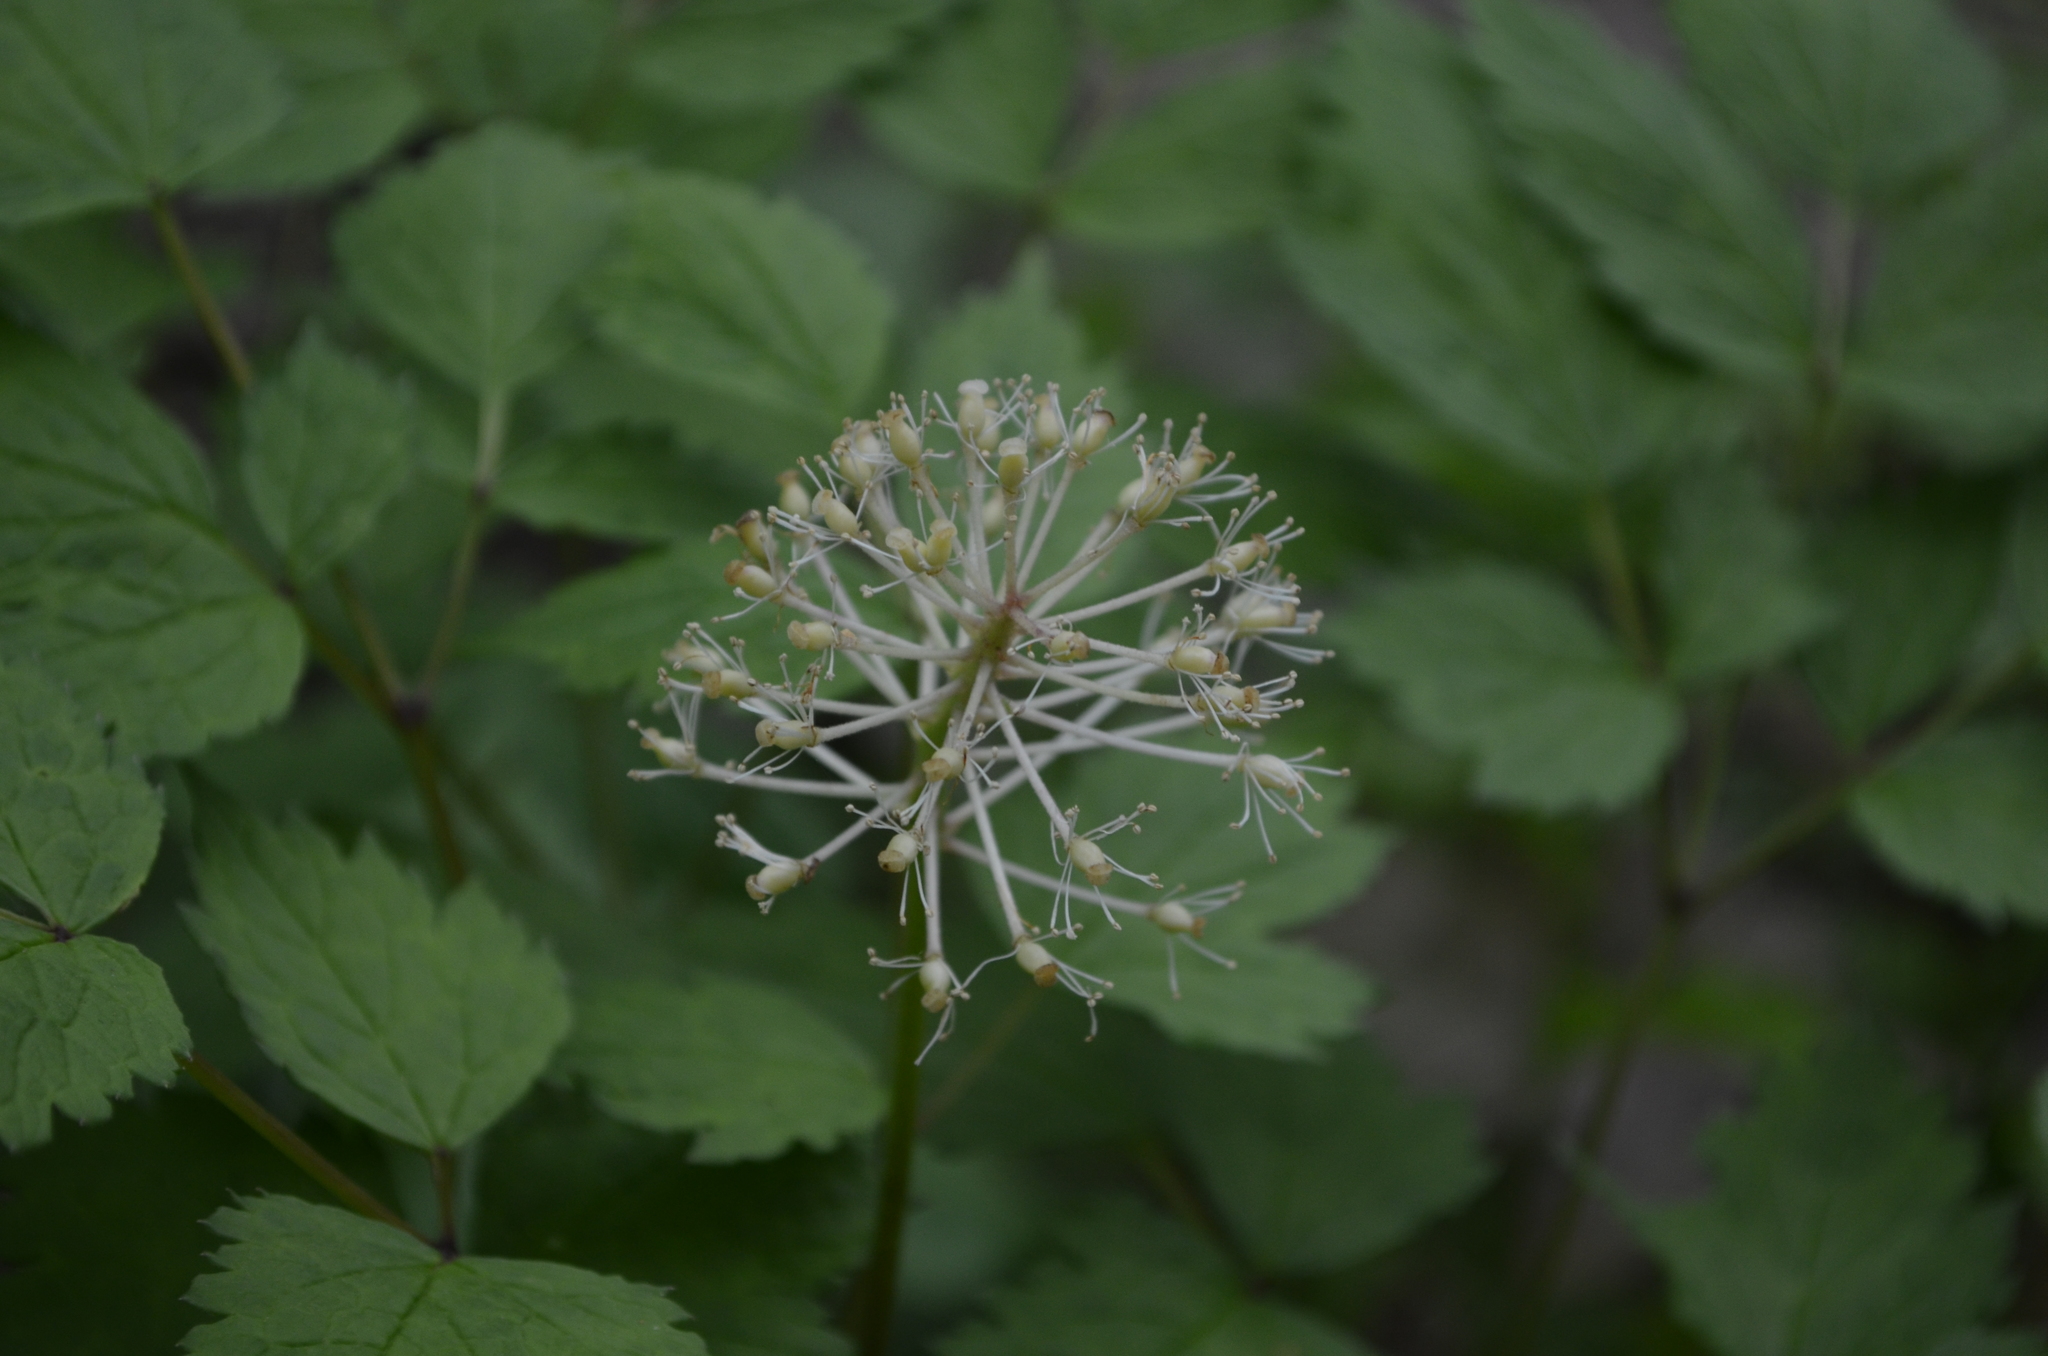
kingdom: Plantae
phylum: Tracheophyta
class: Magnoliopsida
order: Ranunculales
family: Ranunculaceae
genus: Actaea
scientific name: Actaea pachypoda
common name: Doll's-eyes
